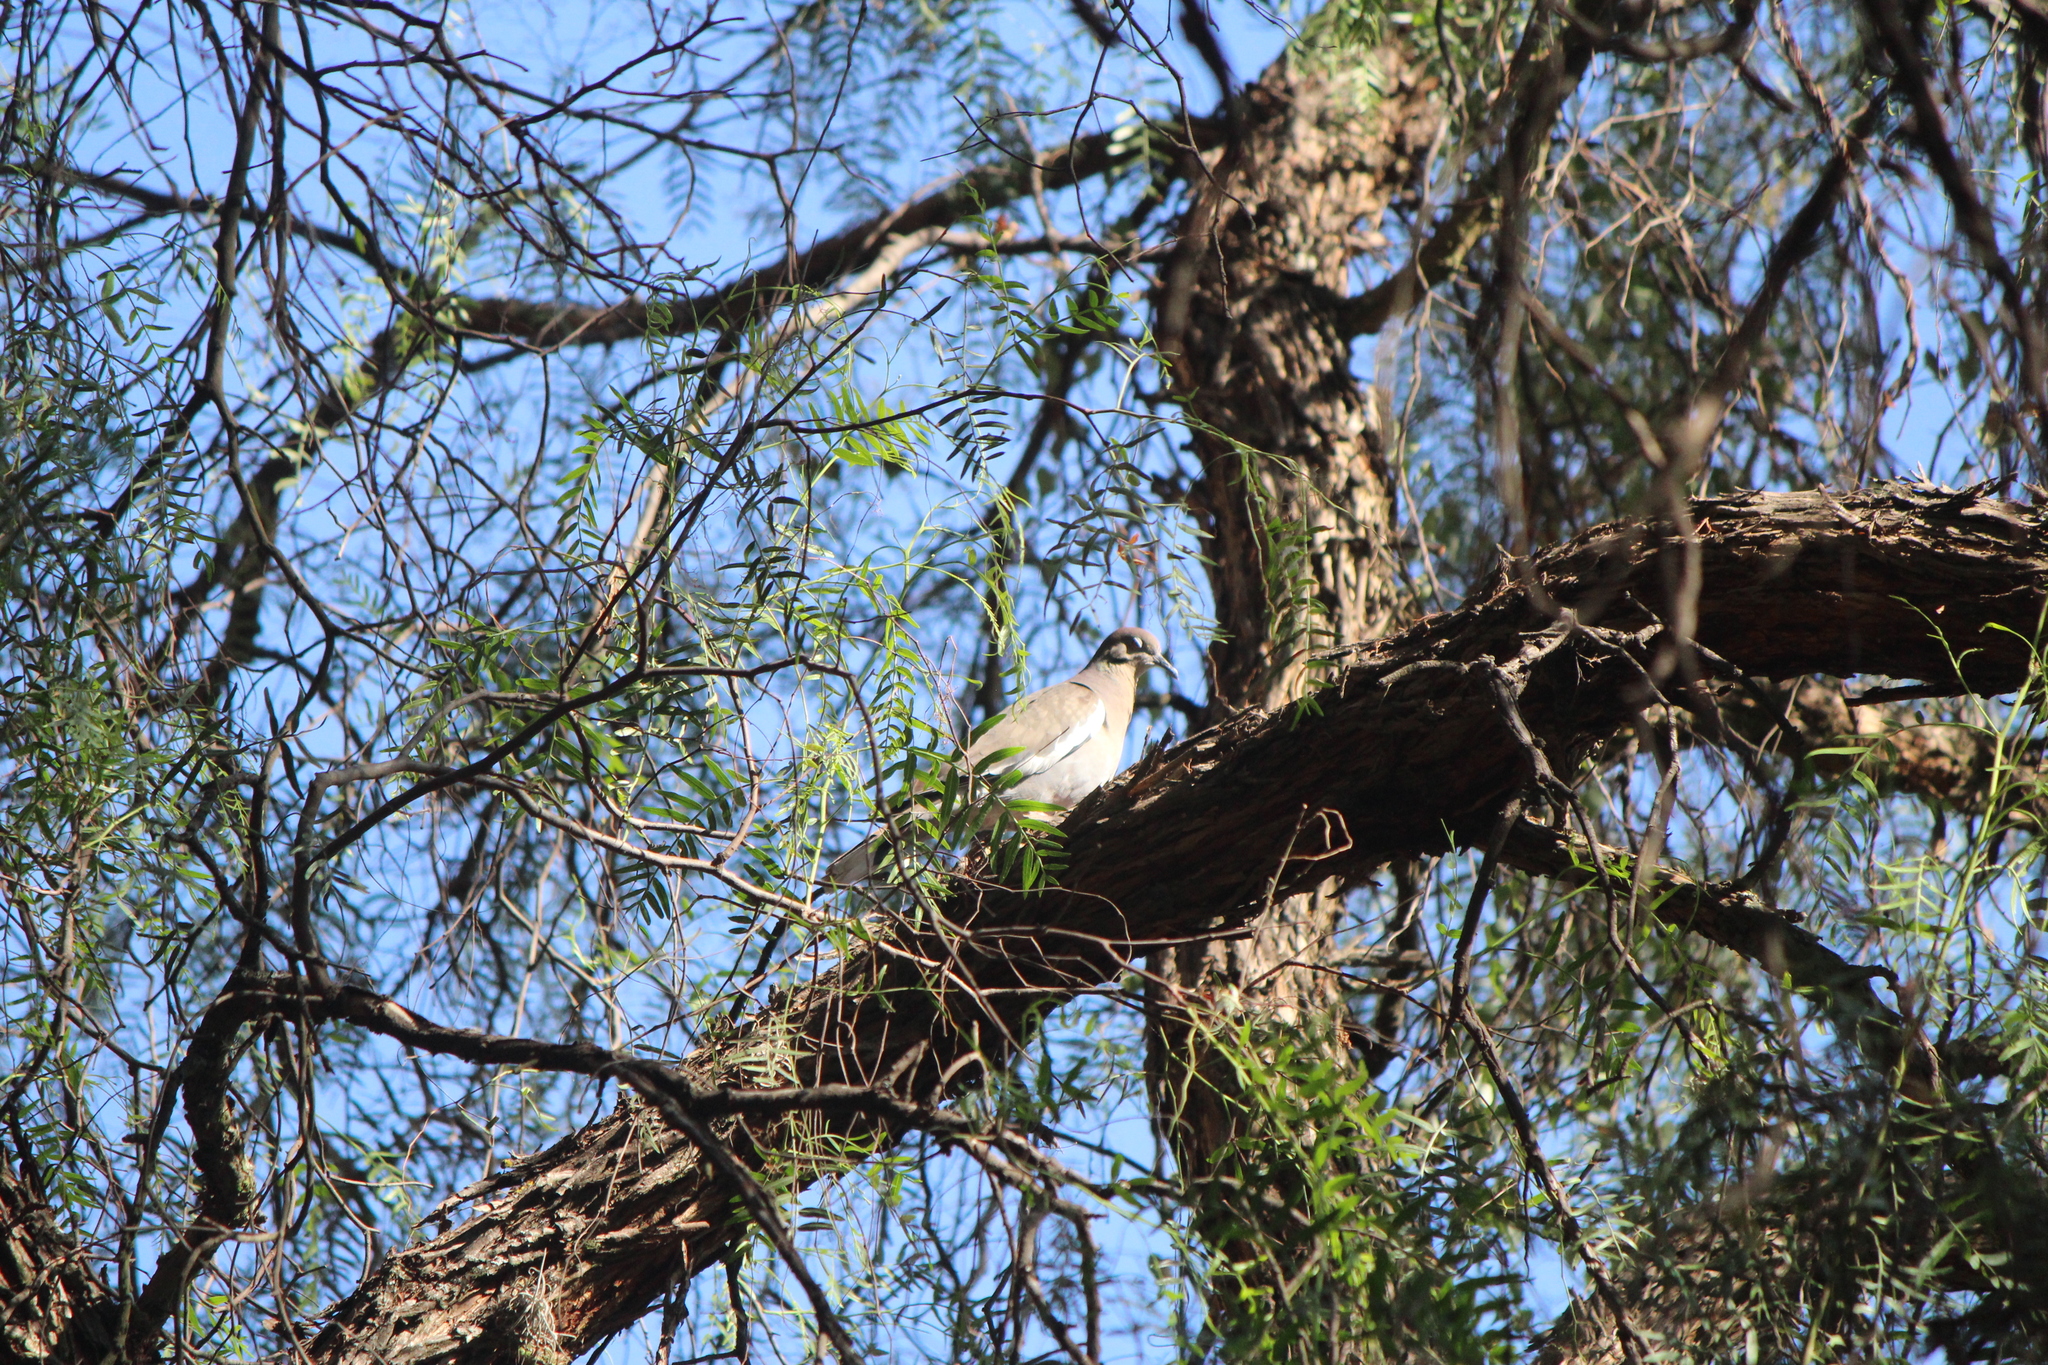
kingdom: Animalia
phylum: Chordata
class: Aves
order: Columbiformes
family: Columbidae
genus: Zenaida
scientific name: Zenaida asiatica
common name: White-winged dove
